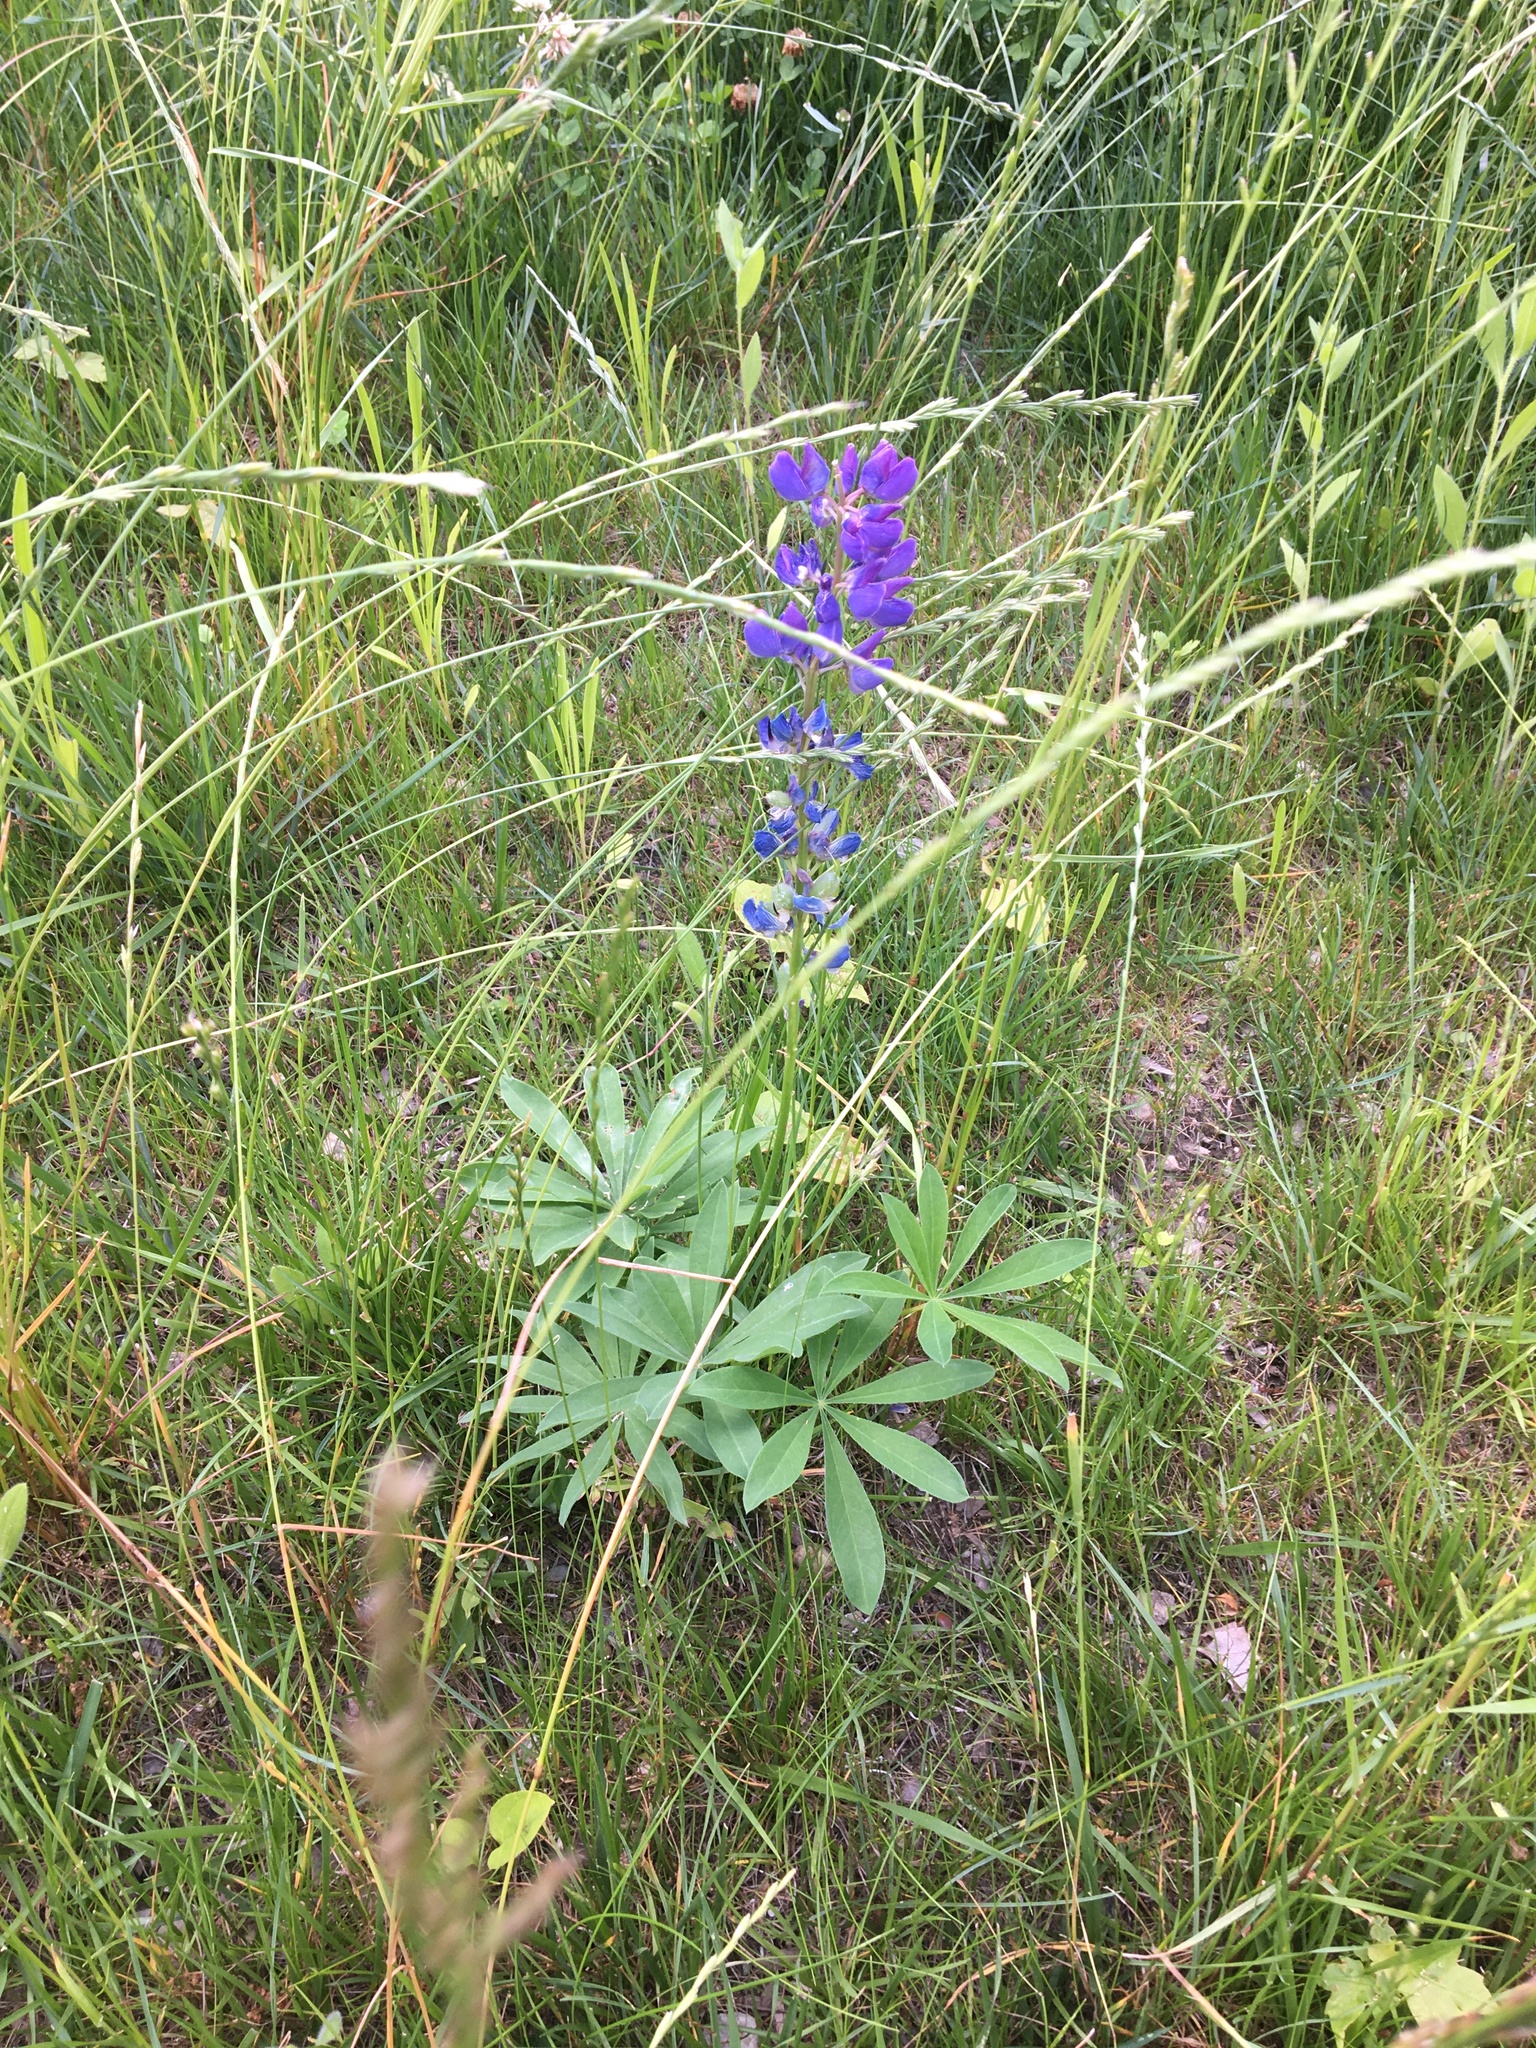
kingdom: Plantae
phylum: Tracheophyta
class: Magnoliopsida
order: Fabales
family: Fabaceae
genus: Lupinus
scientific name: Lupinus polyphyllus
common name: Garden lupin
